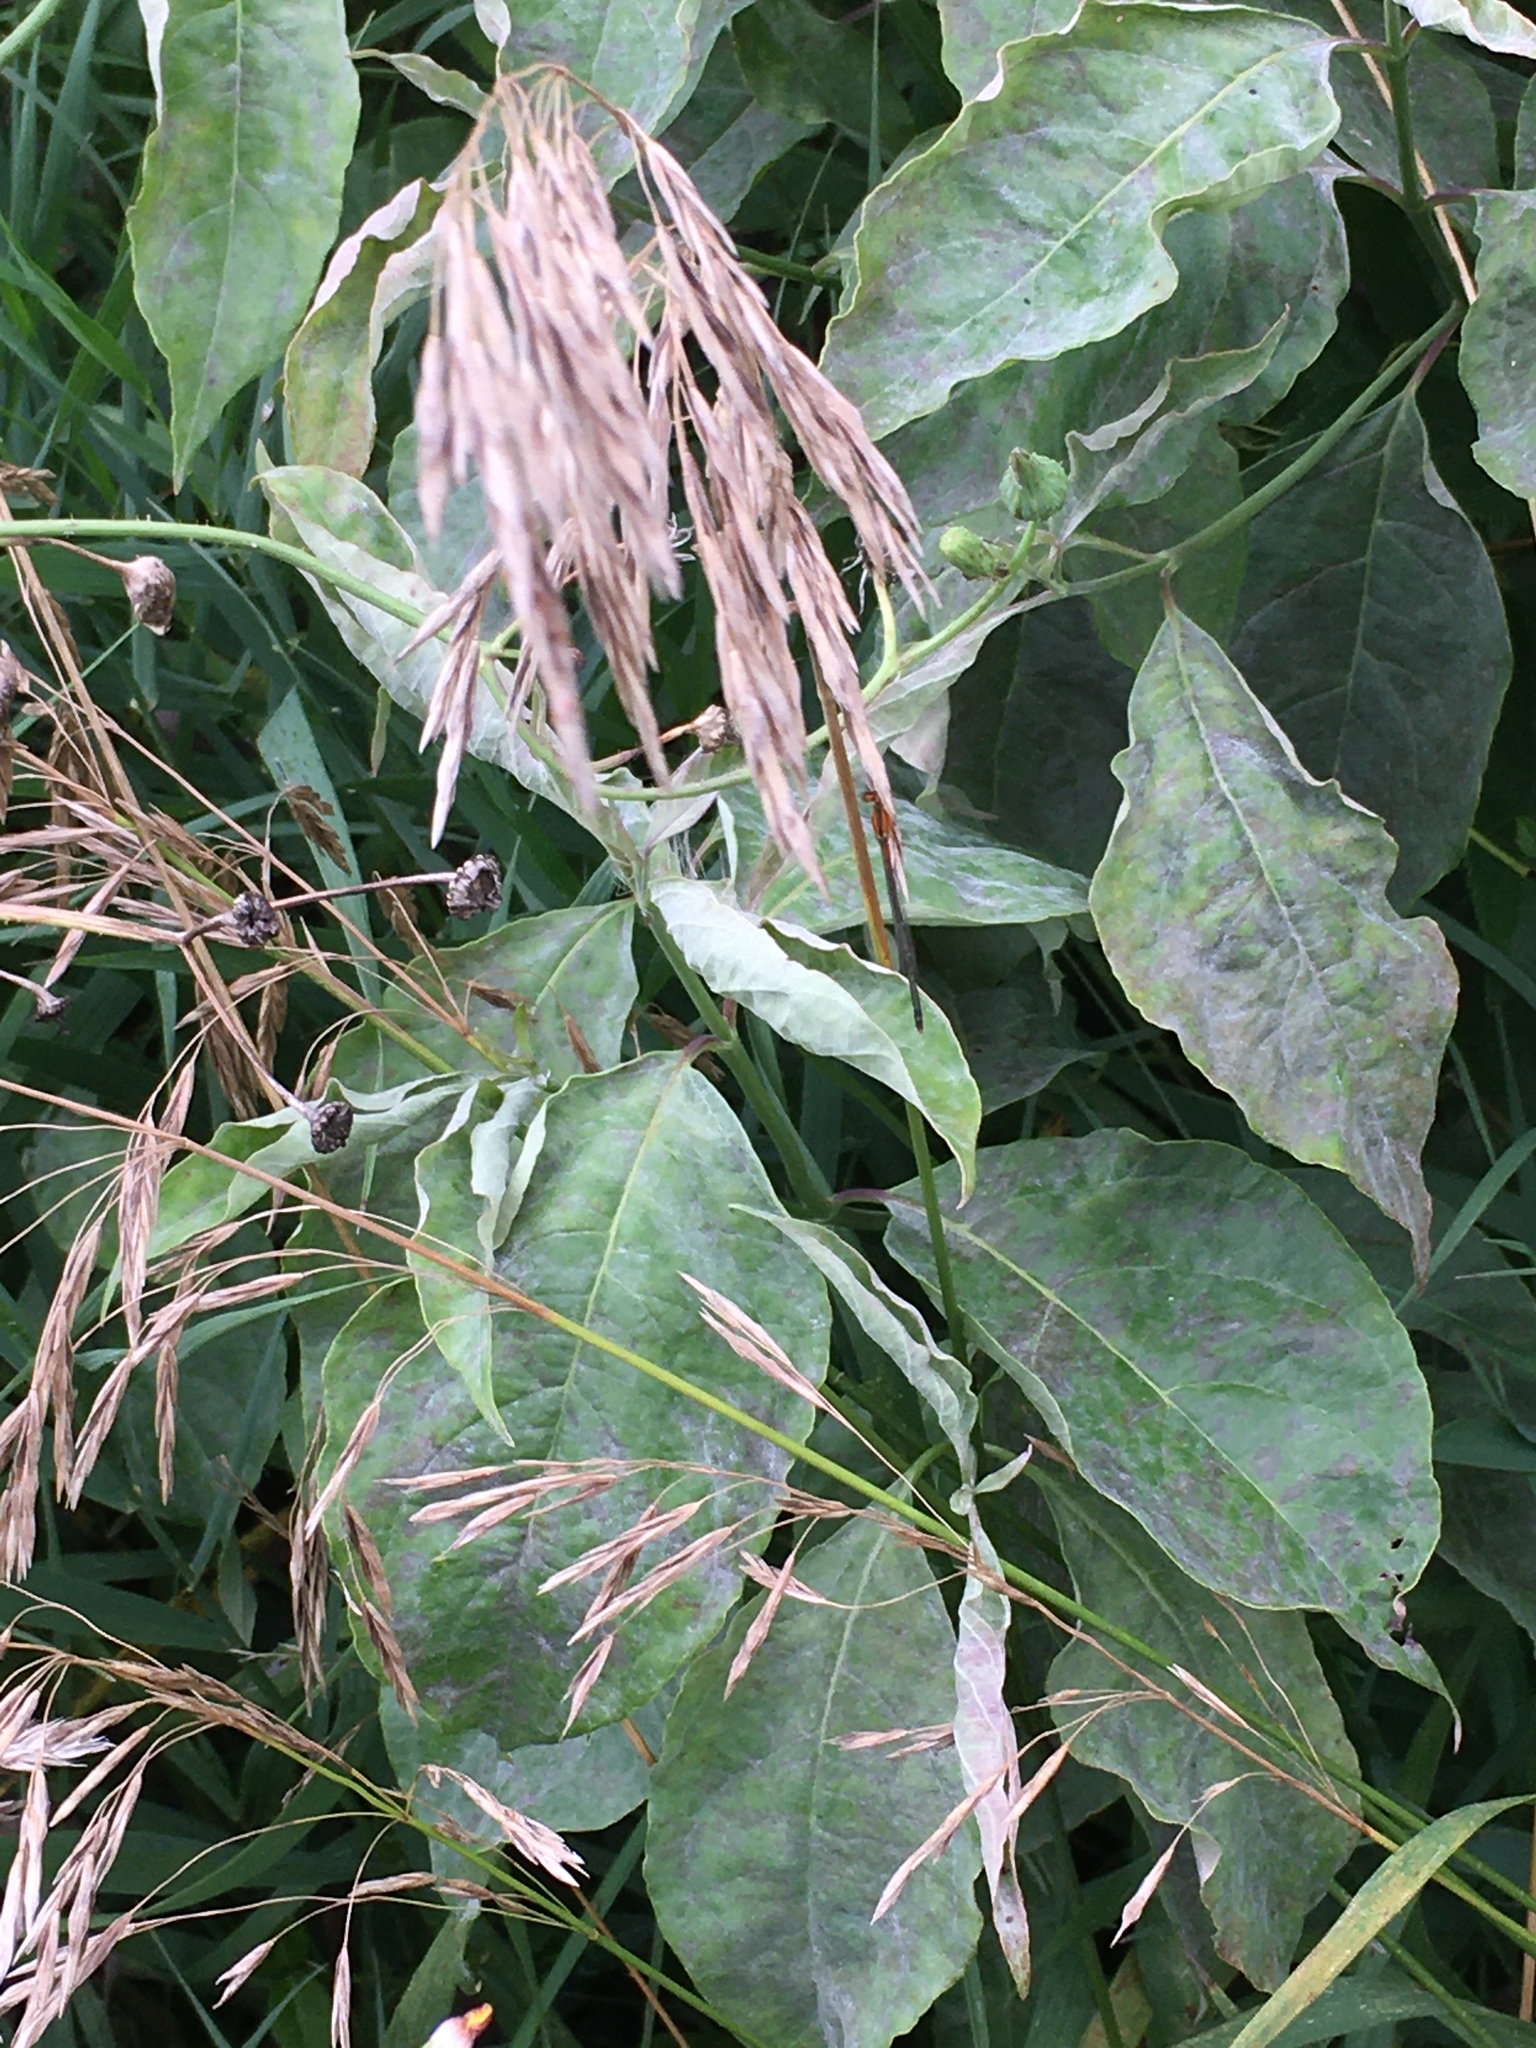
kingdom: Animalia
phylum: Arthropoda
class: Insecta
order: Odonata
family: Coenagrionidae
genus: Ischnura
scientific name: Ischnura verticalis
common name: Eastern forktail
